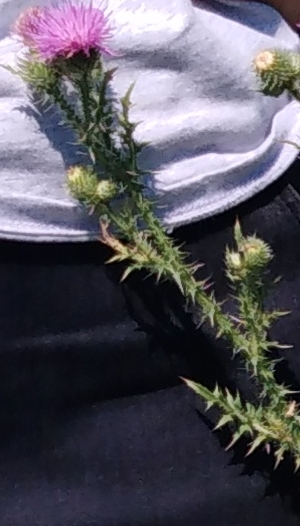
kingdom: Plantae
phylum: Tracheophyta
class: Magnoliopsida
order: Asterales
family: Asteraceae
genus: Carduus
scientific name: Carduus acanthoides
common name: Plumeless thistle
